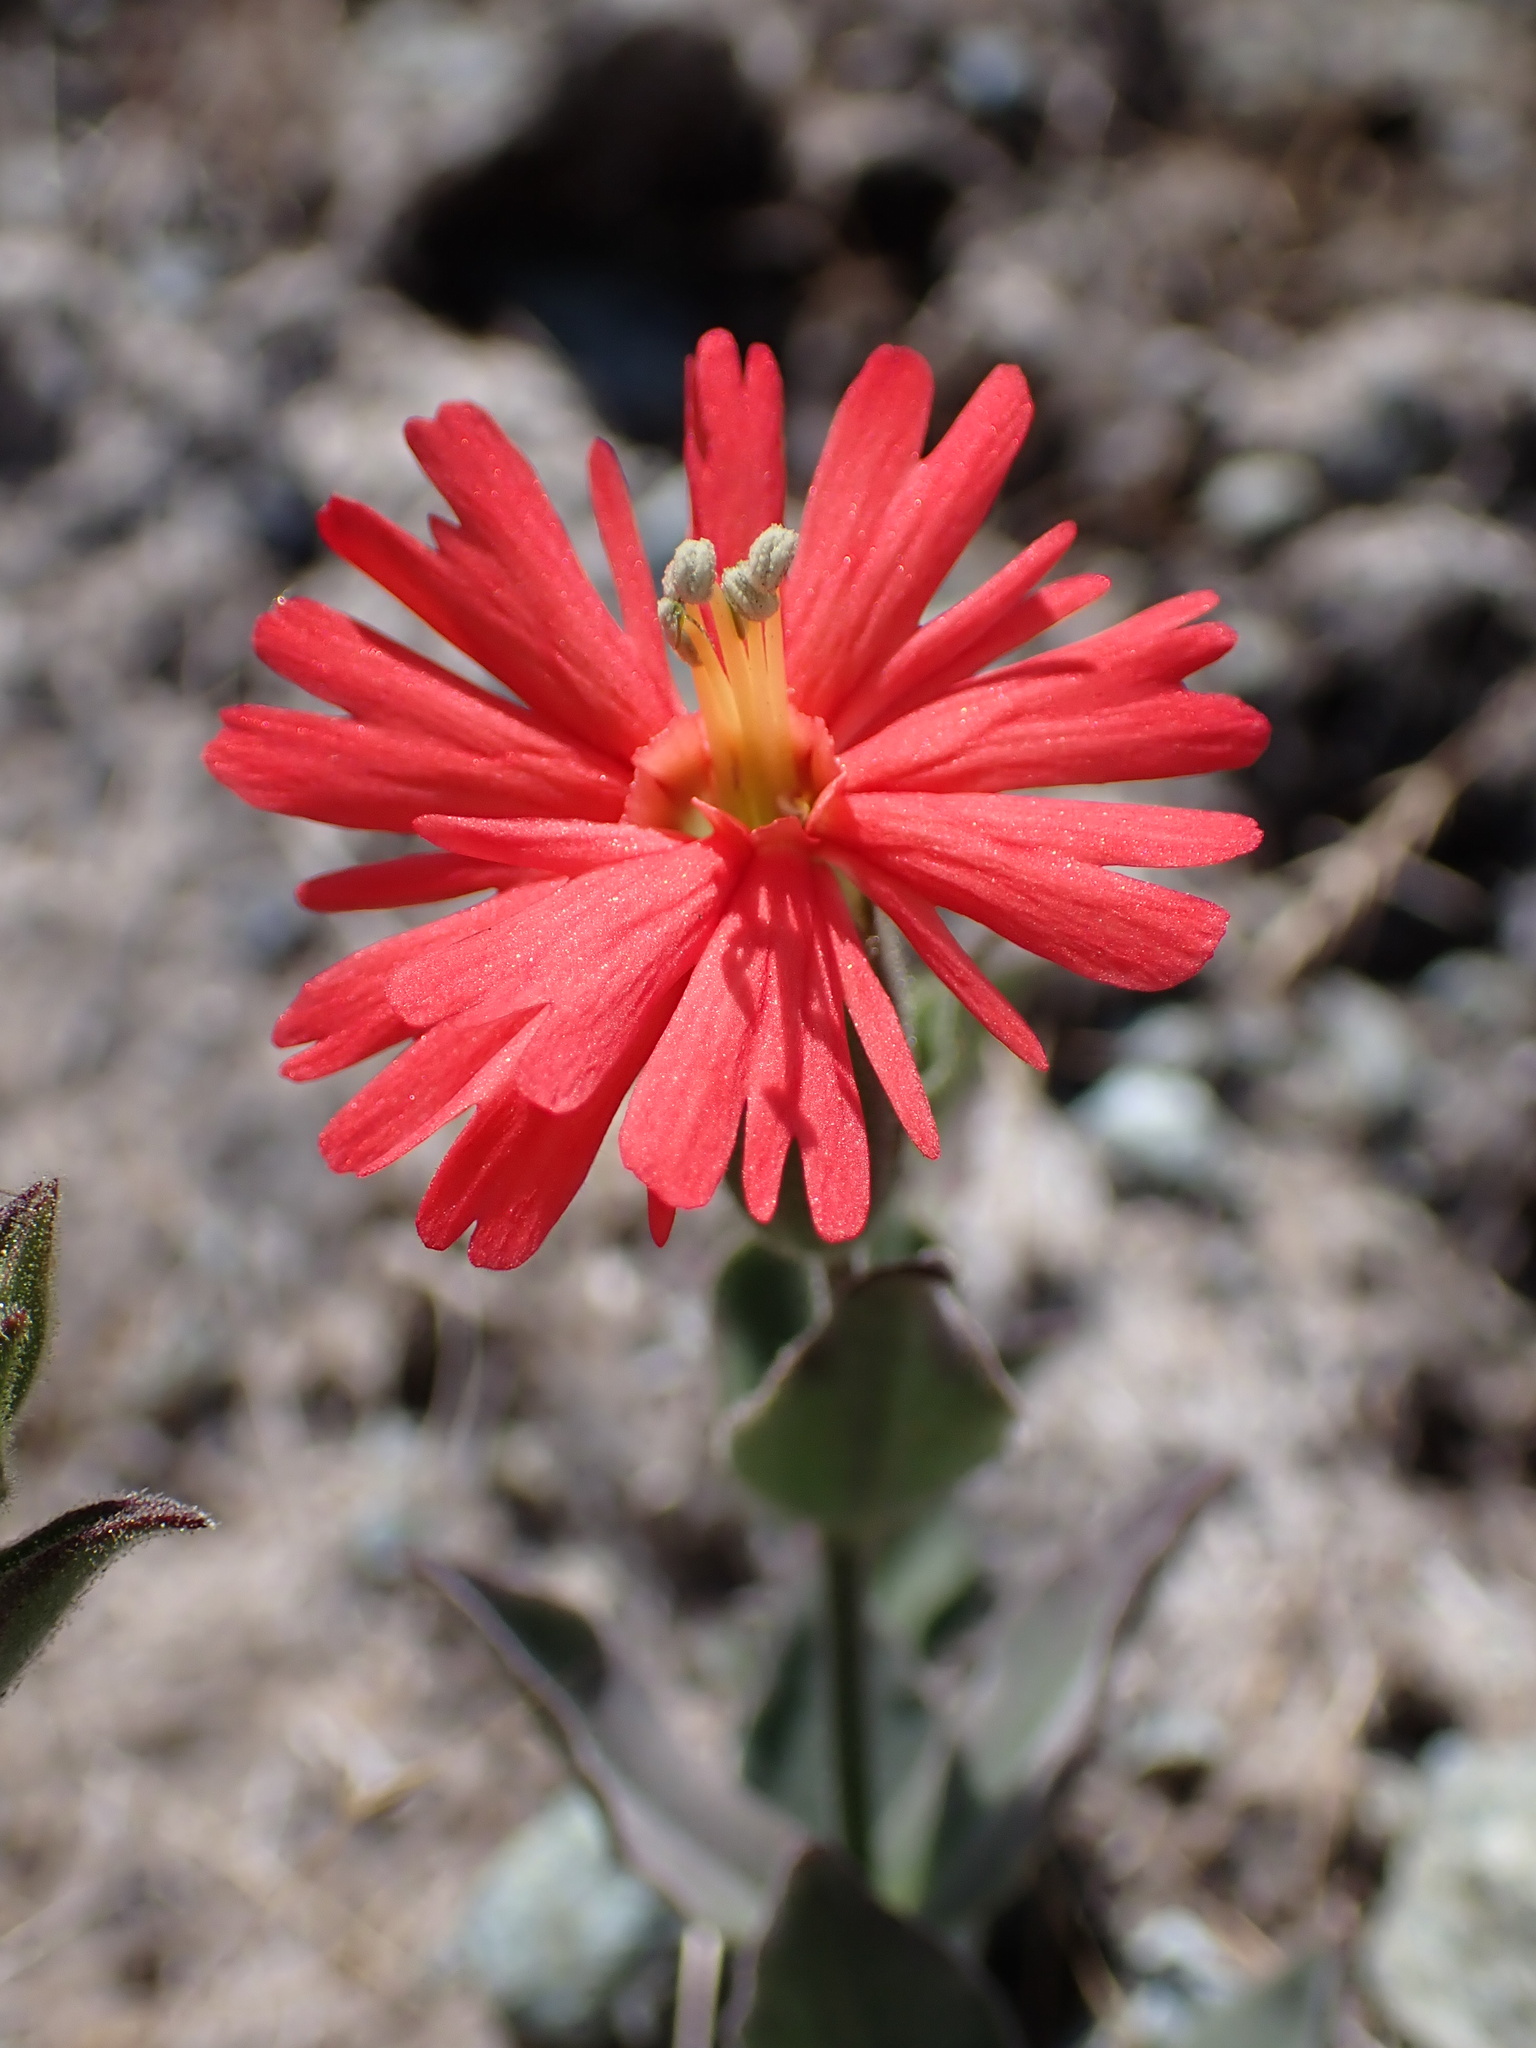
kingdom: Plantae
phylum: Tracheophyta
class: Magnoliopsida
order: Caryophyllales
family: Caryophyllaceae
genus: Silene
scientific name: Silene laciniata
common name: Indian-pink
